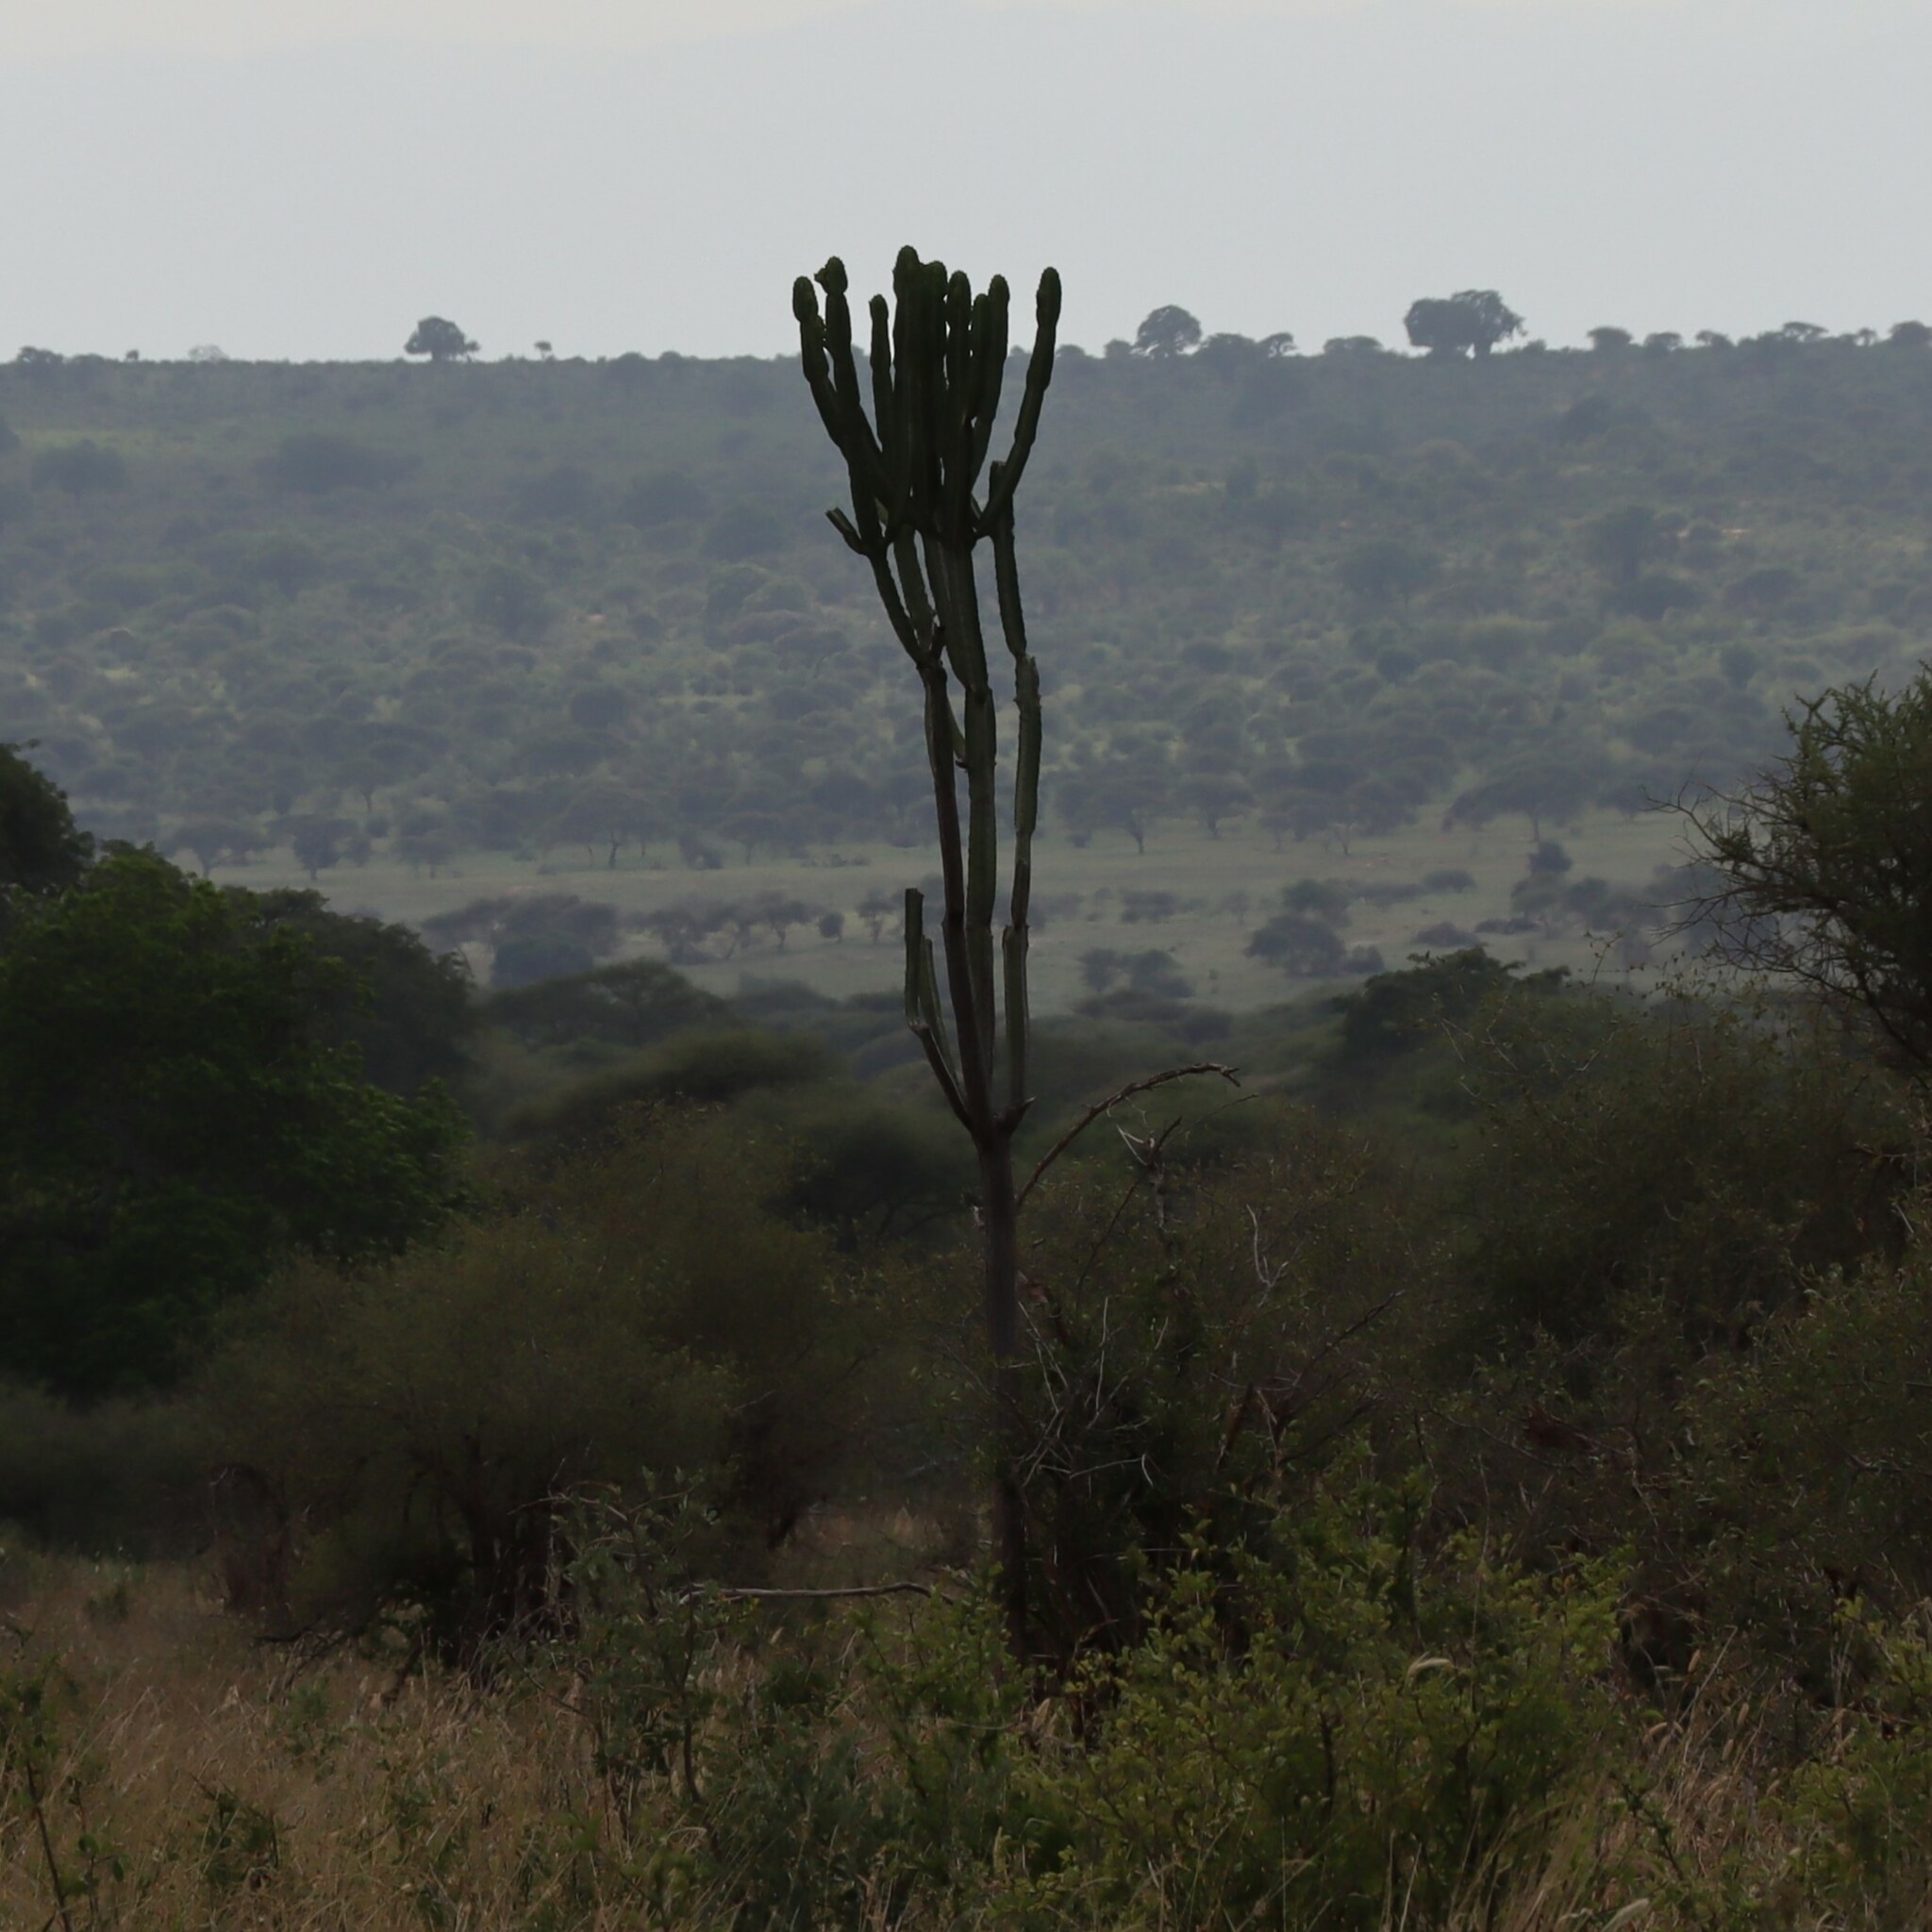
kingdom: Plantae
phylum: Tracheophyta
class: Magnoliopsida
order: Malpighiales
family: Euphorbiaceae
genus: Euphorbia
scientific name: Euphorbia ingens
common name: Cactus spurge
